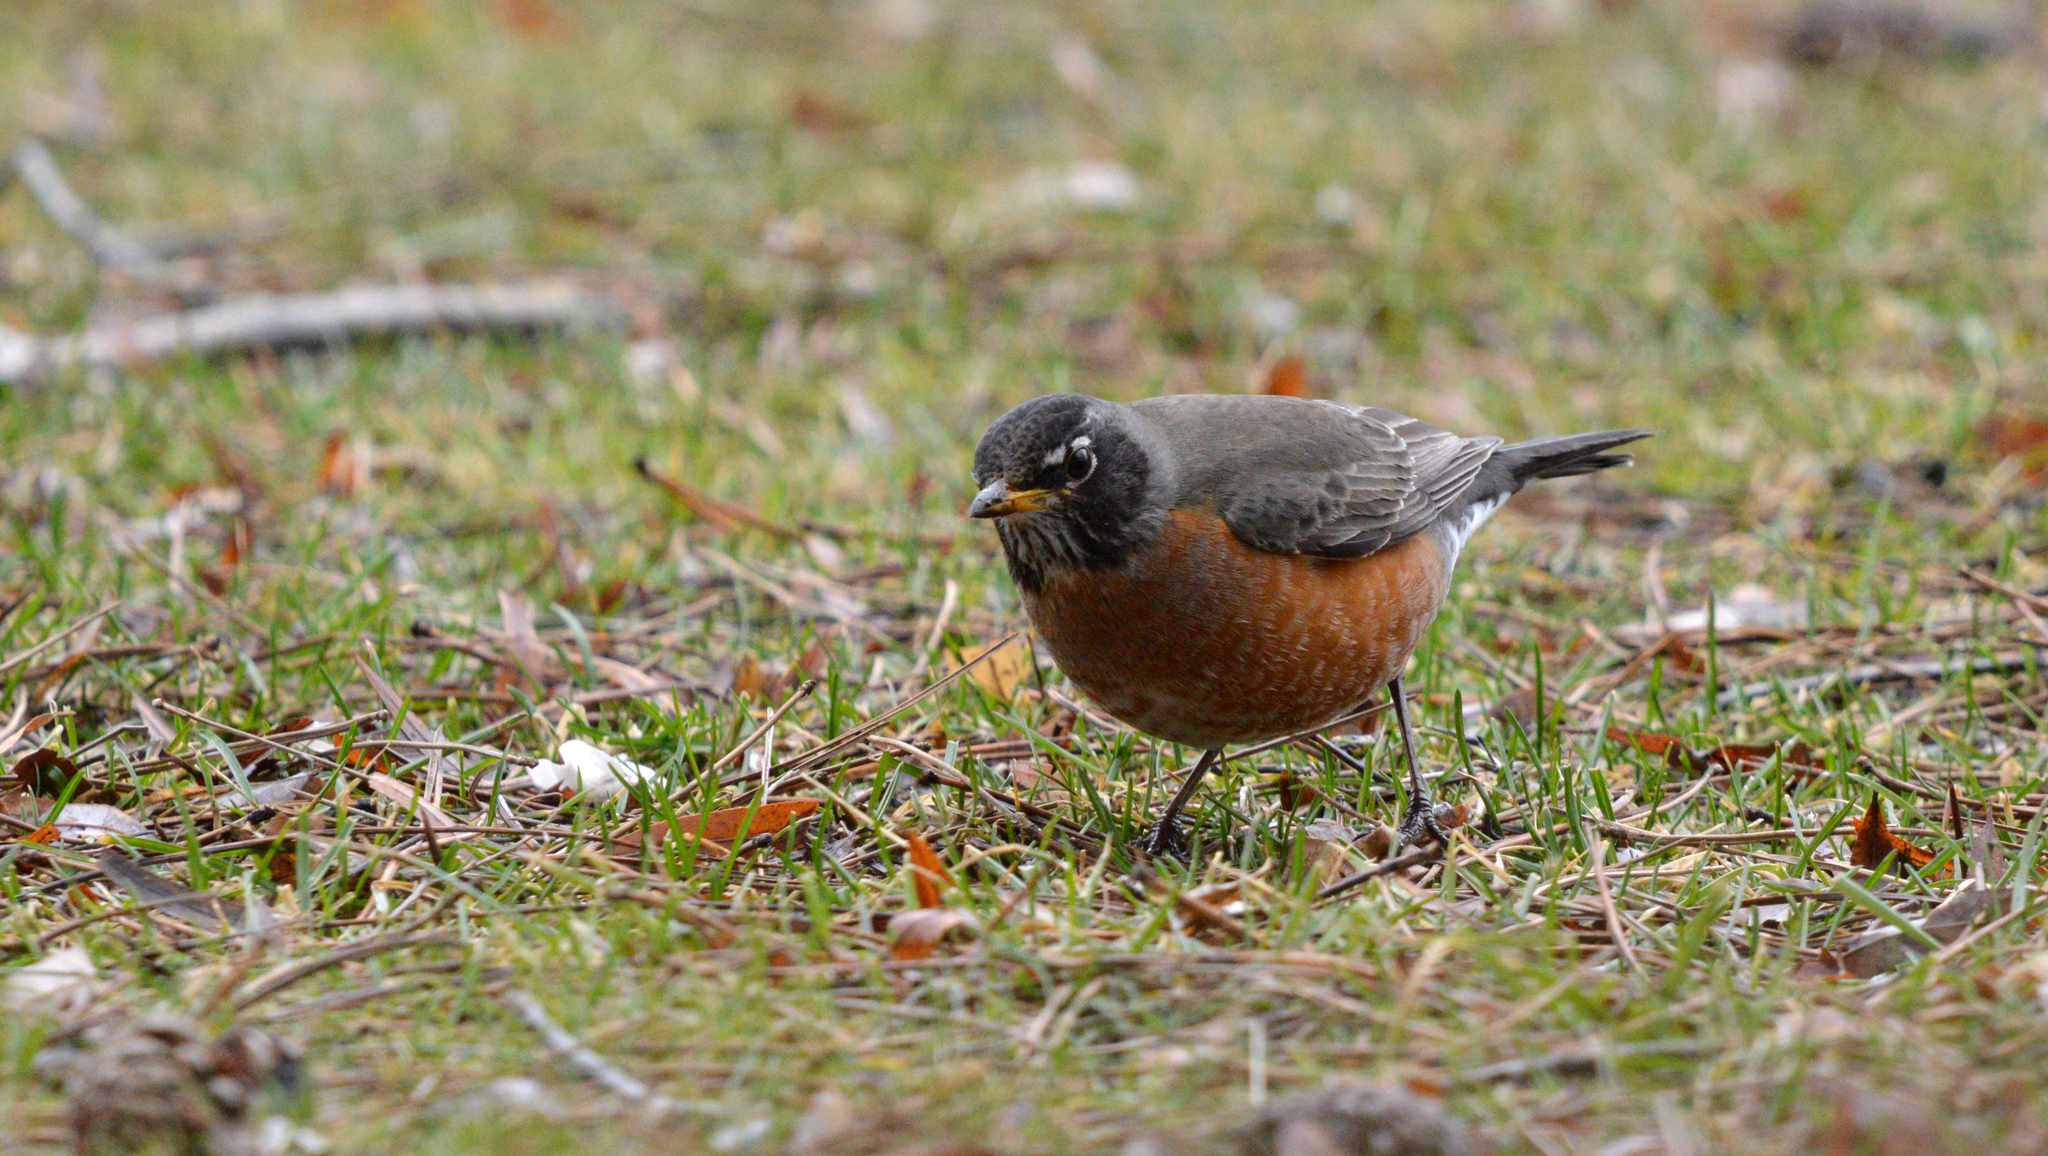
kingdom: Animalia
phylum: Chordata
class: Aves
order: Passeriformes
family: Turdidae
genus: Turdus
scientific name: Turdus migratorius
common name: American robin
